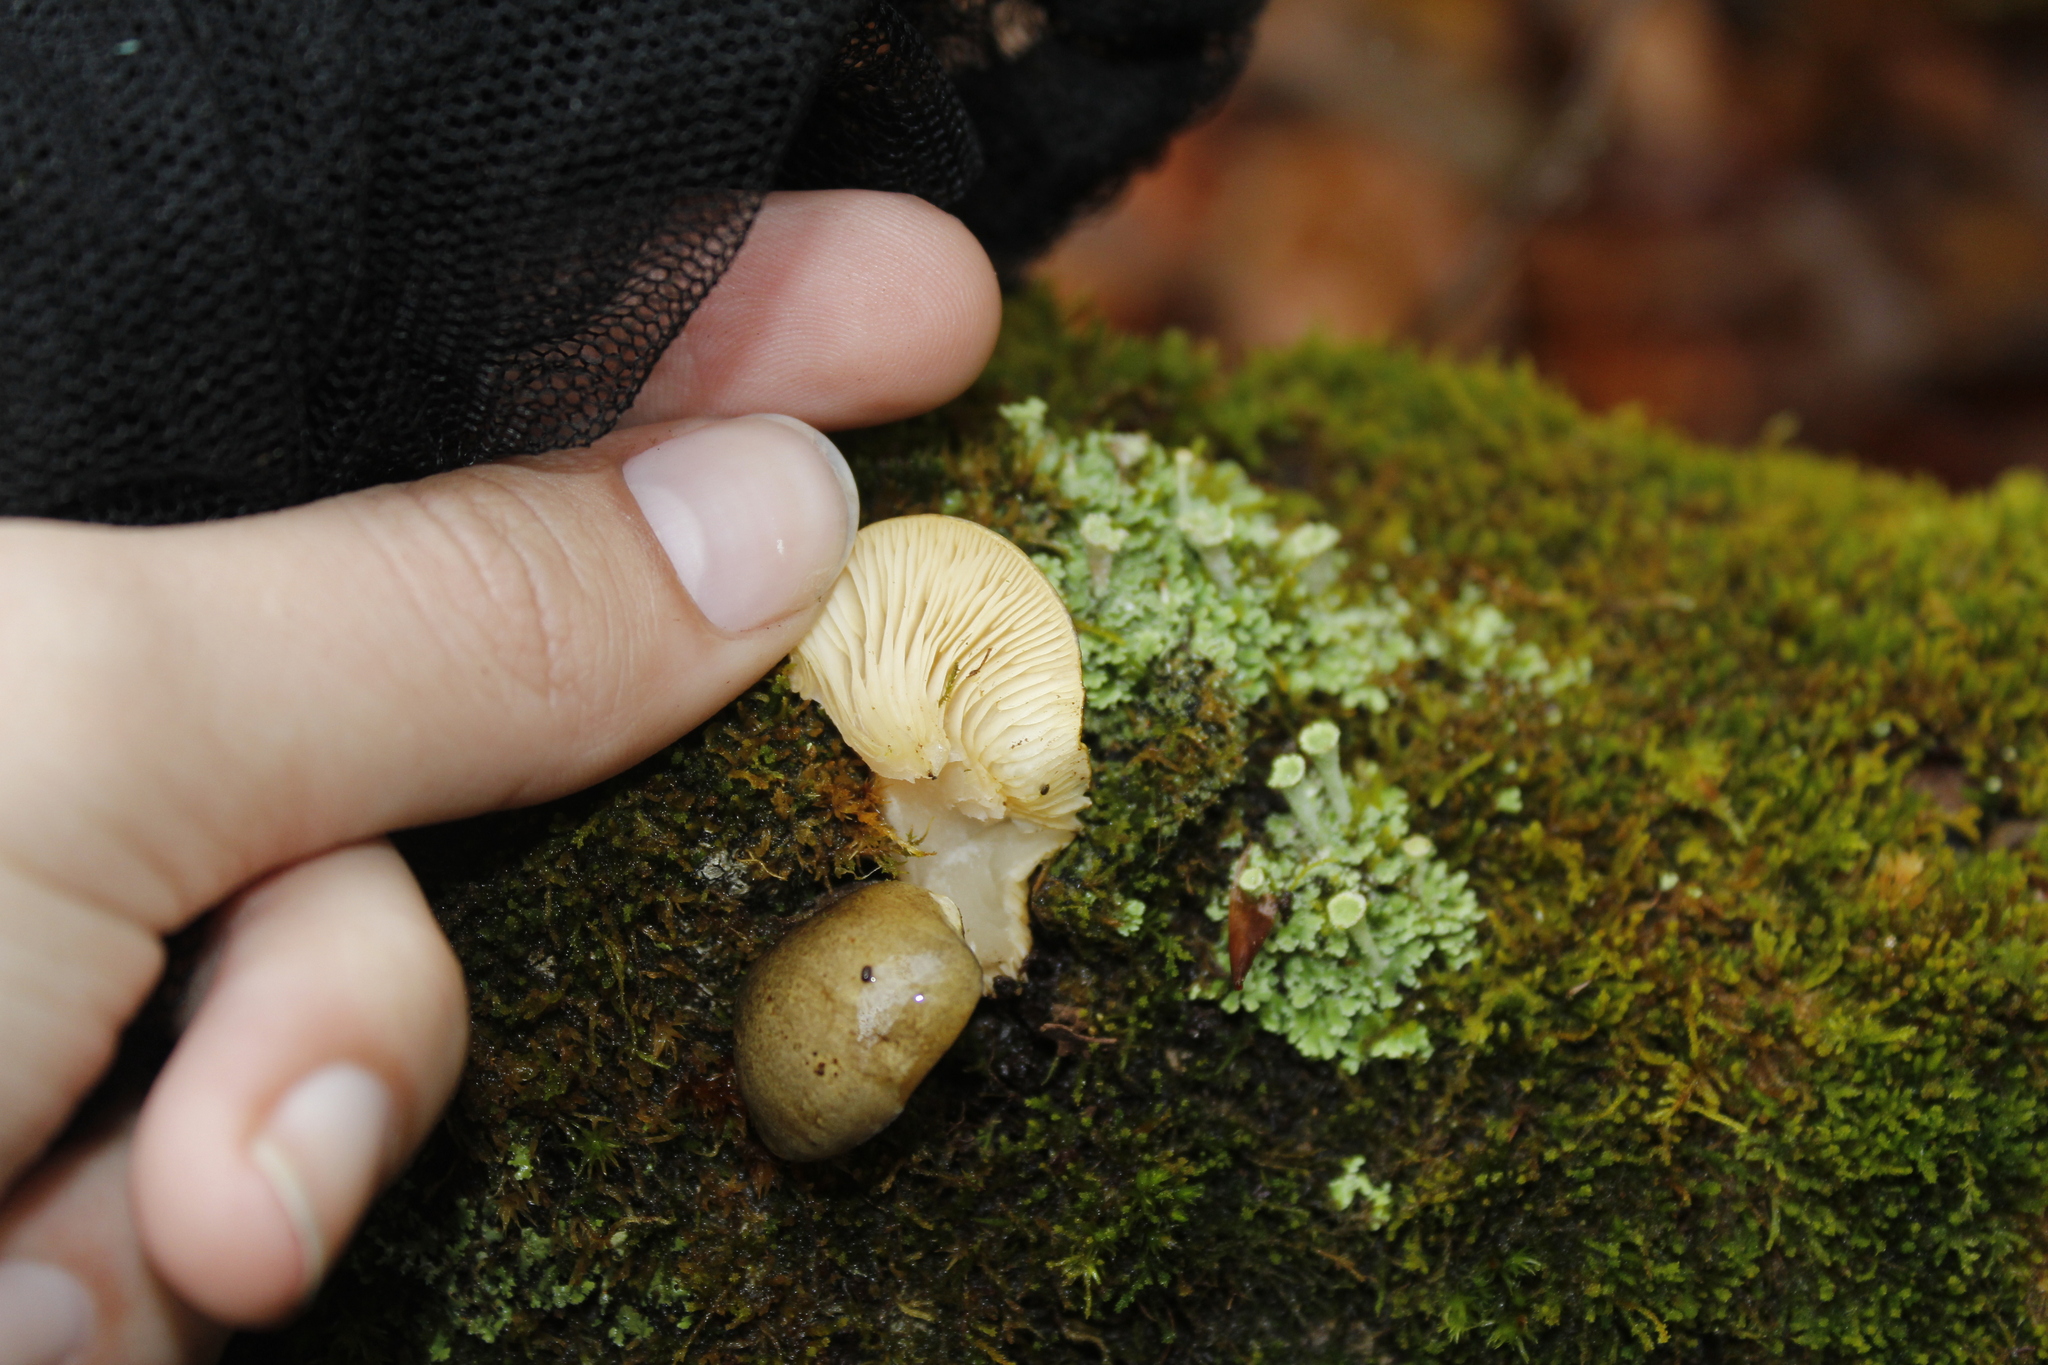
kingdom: Fungi
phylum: Basidiomycota
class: Agaricomycetes
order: Agaricales
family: Sarcomyxaceae
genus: Sarcomyxa
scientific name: Sarcomyxa serotina
